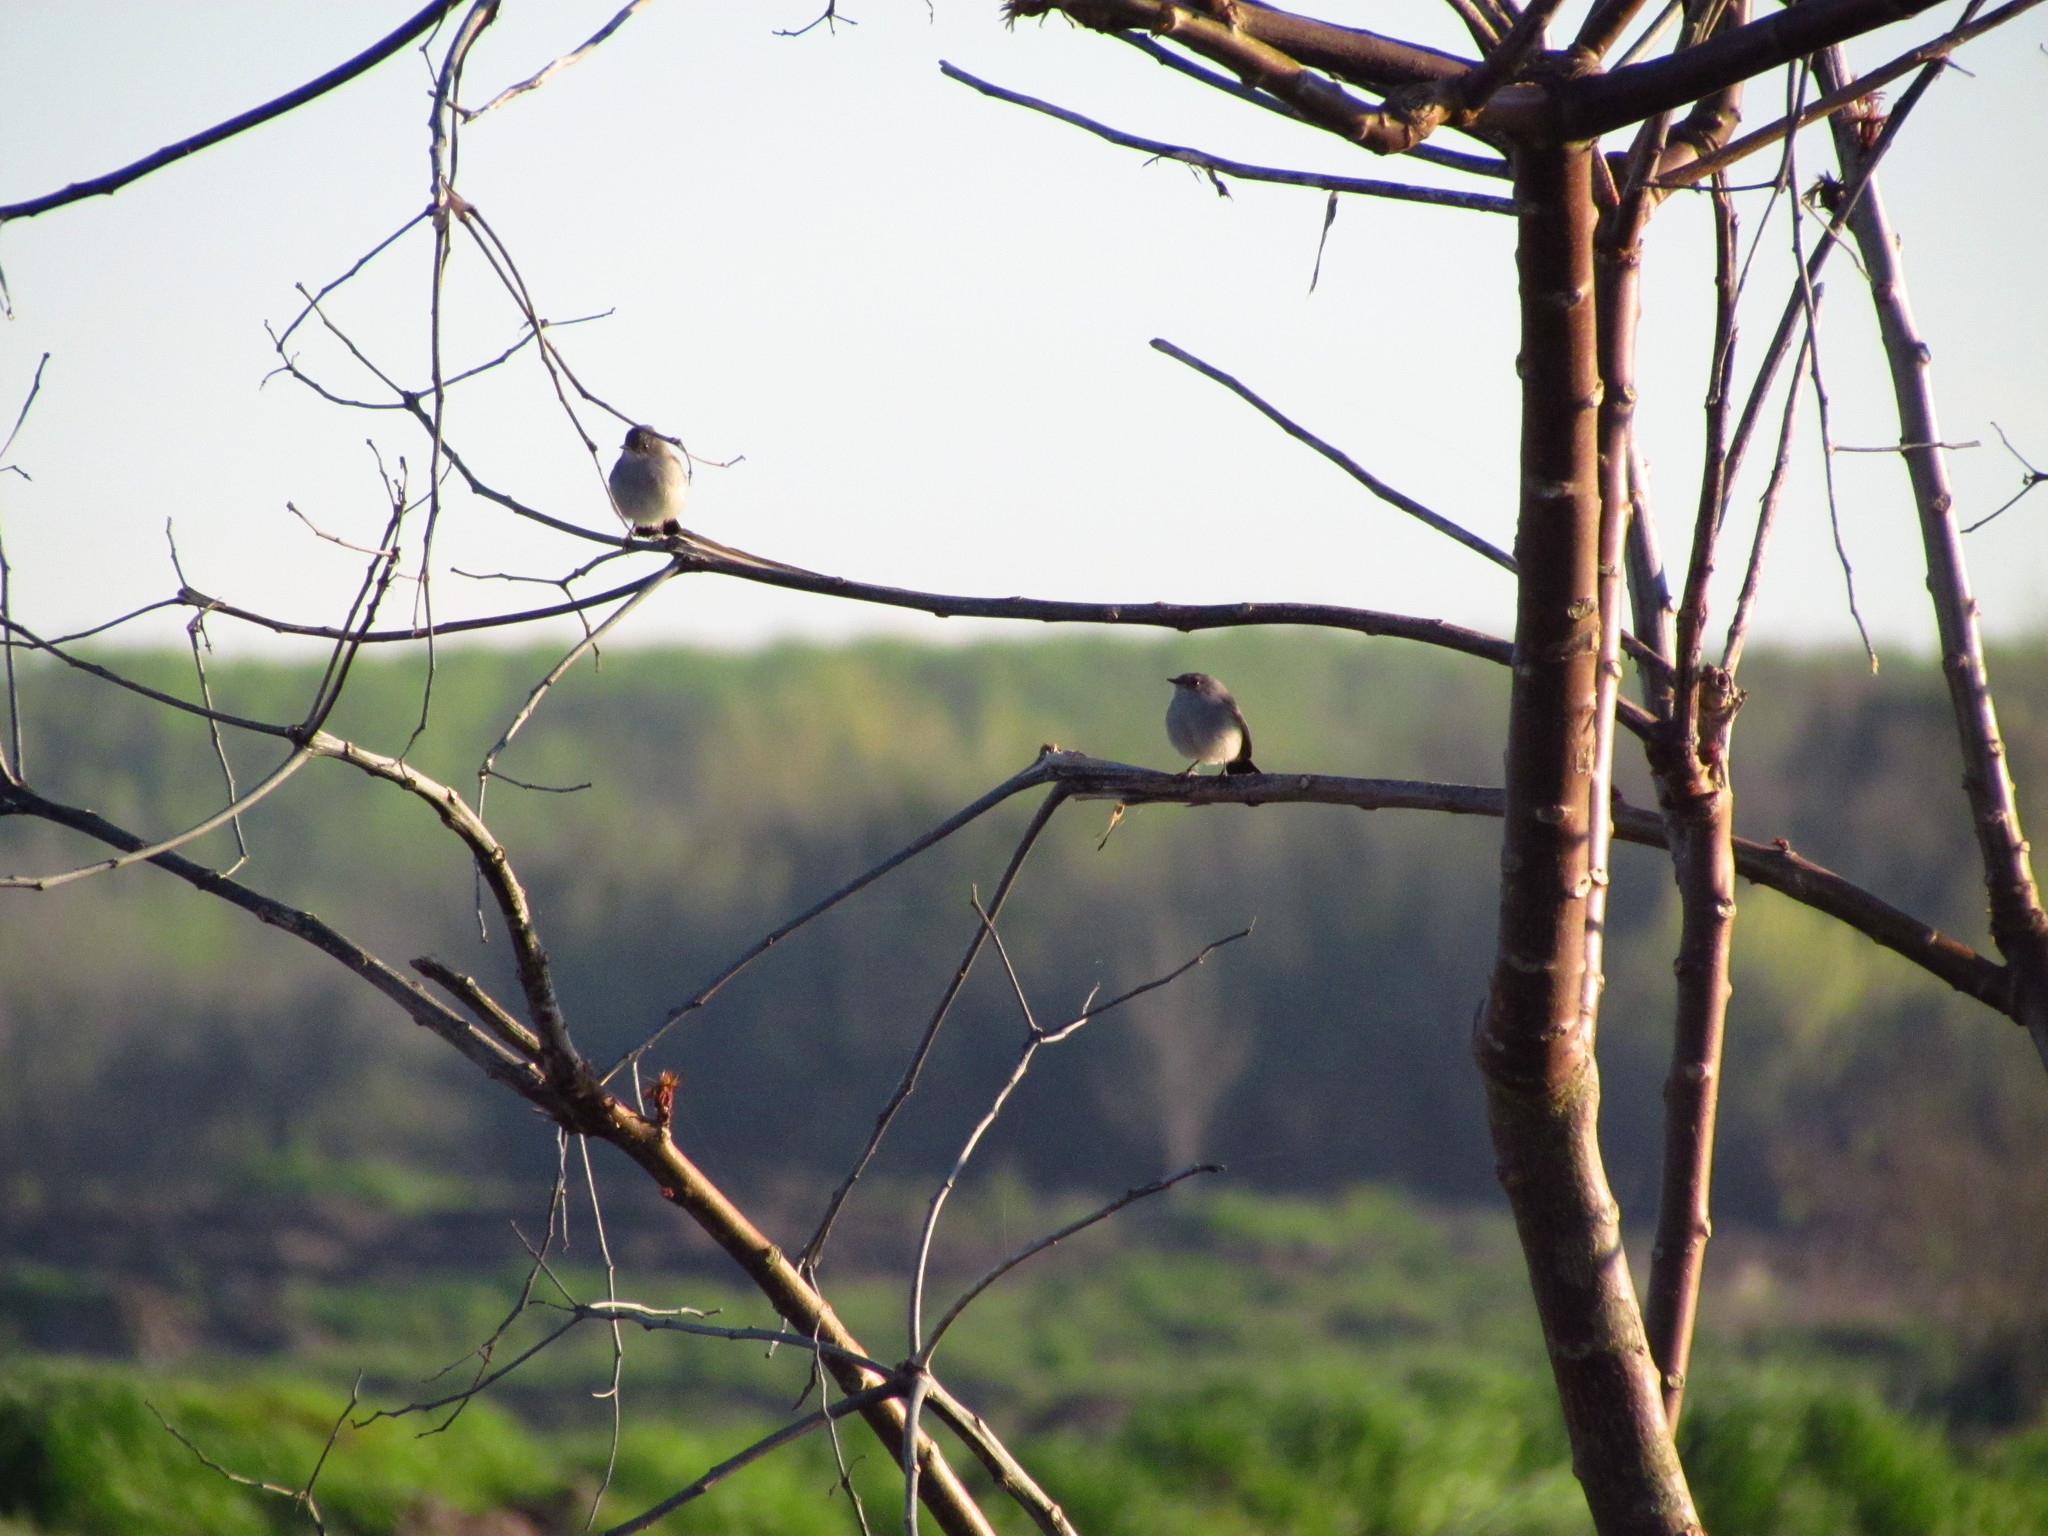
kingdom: Animalia
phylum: Chordata
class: Aves
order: Passeriformes
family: Tyrannidae
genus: Serpophaga
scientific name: Serpophaga nigricans
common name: Sooty tyrannulet
